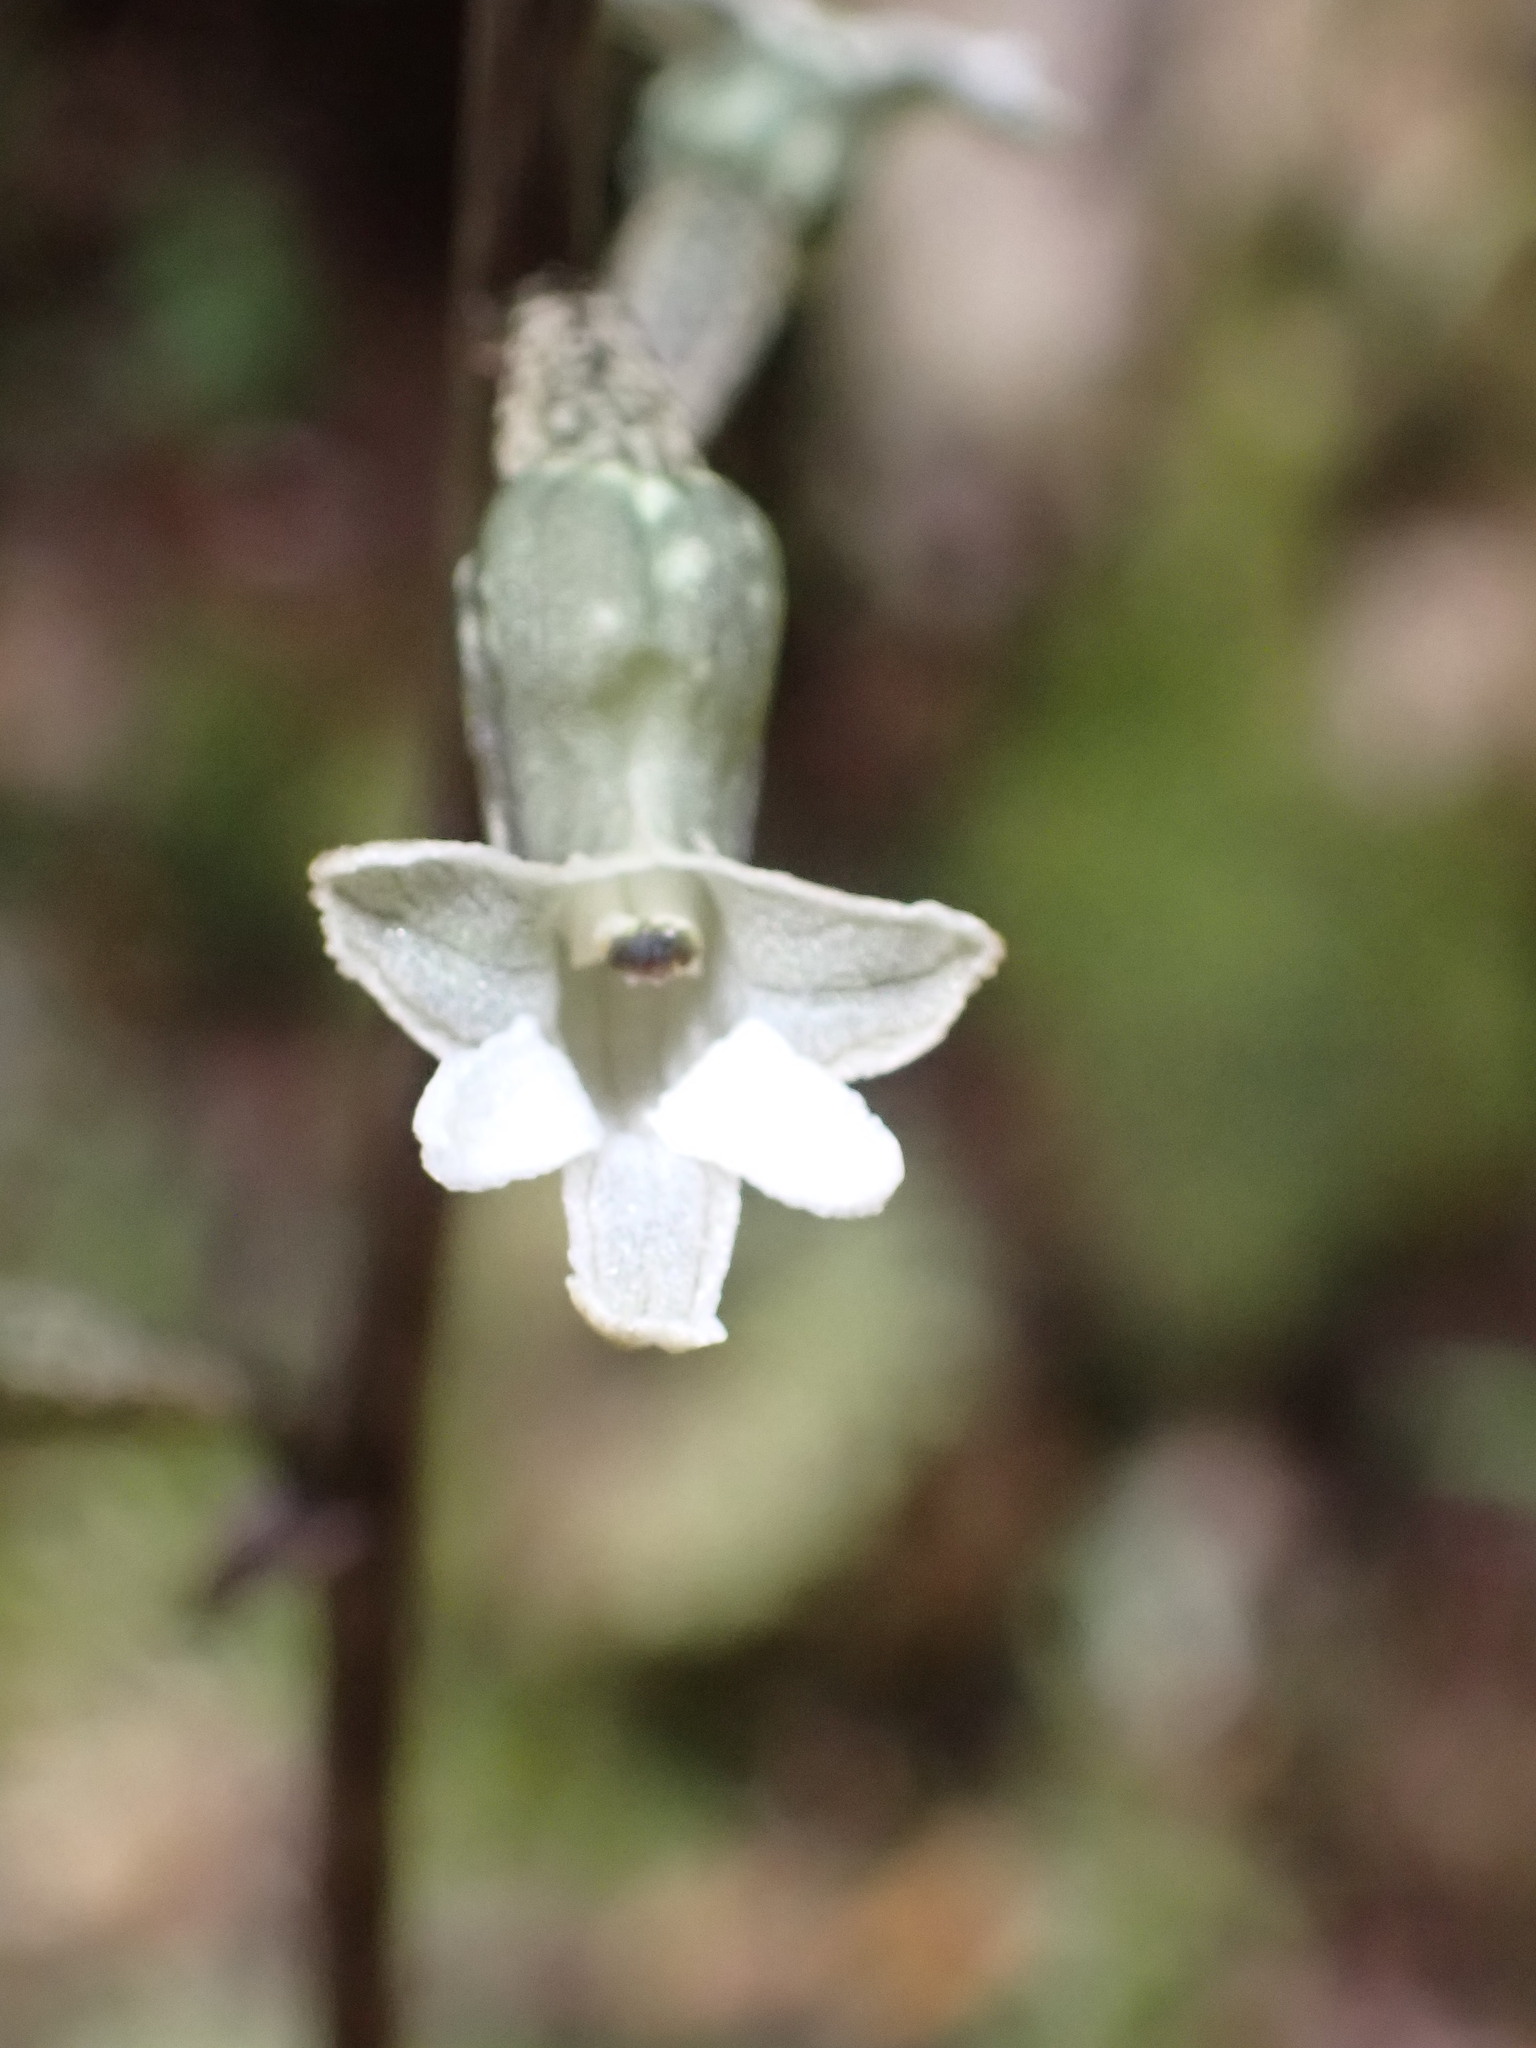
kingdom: Plantae
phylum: Tracheophyta
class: Liliopsida
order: Asparagales
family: Orchidaceae
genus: Gastrodia
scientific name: Gastrodia cunninghamii
